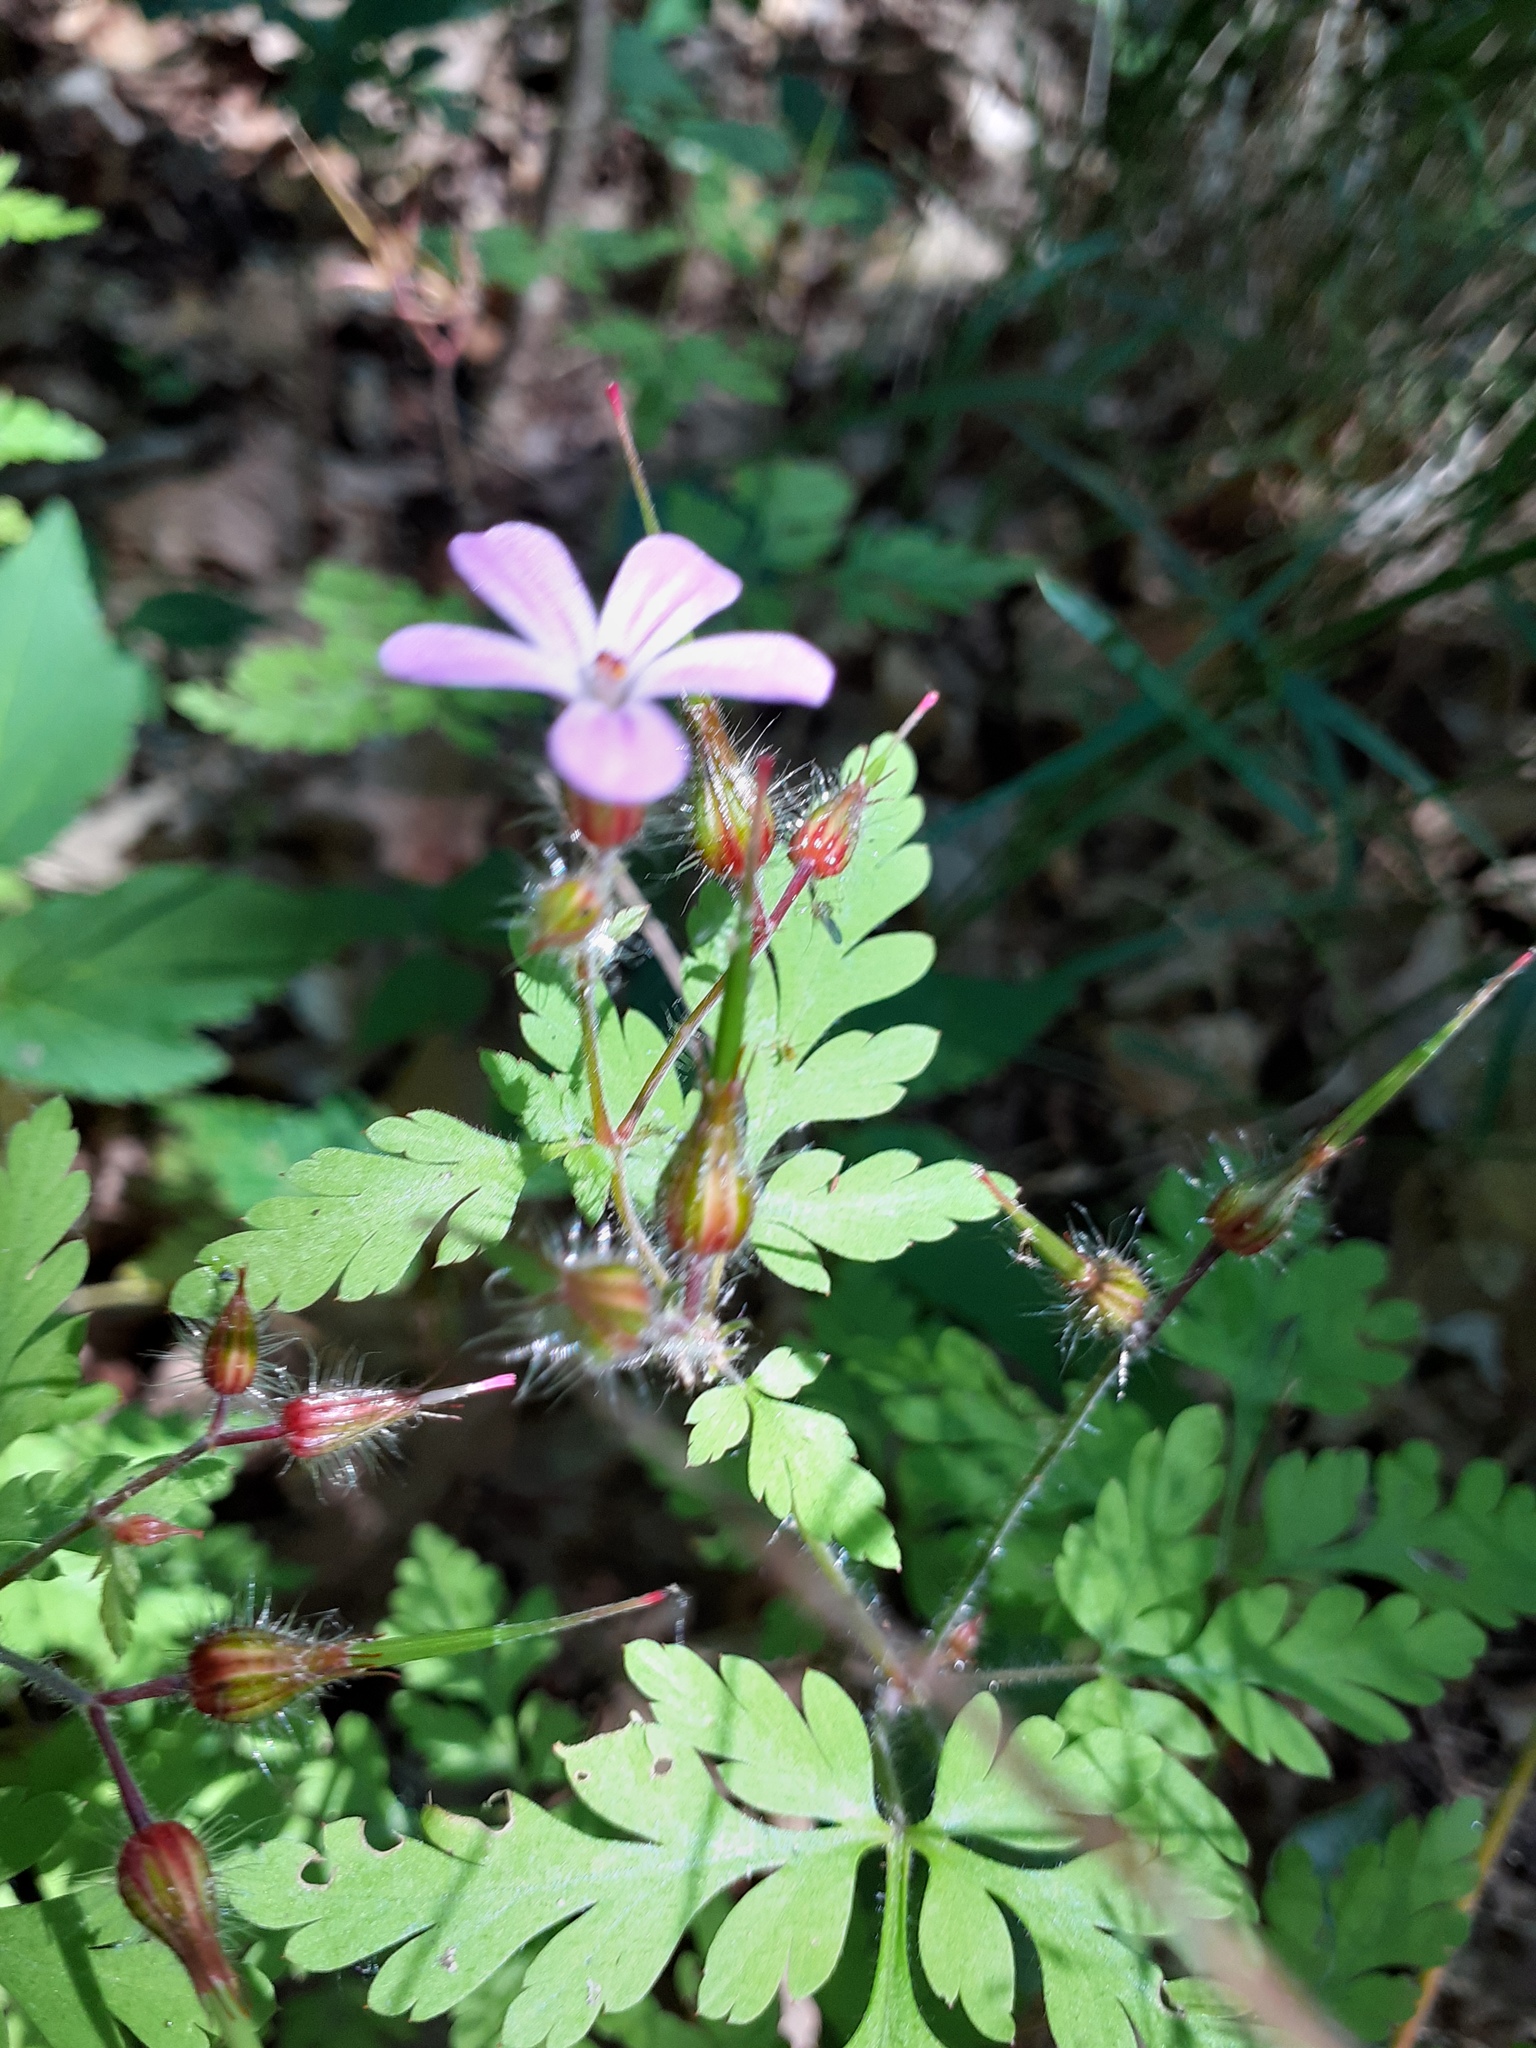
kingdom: Plantae
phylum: Tracheophyta
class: Magnoliopsida
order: Geraniales
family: Geraniaceae
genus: Geranium
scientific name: Geranium robertianum
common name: Herb-robert
